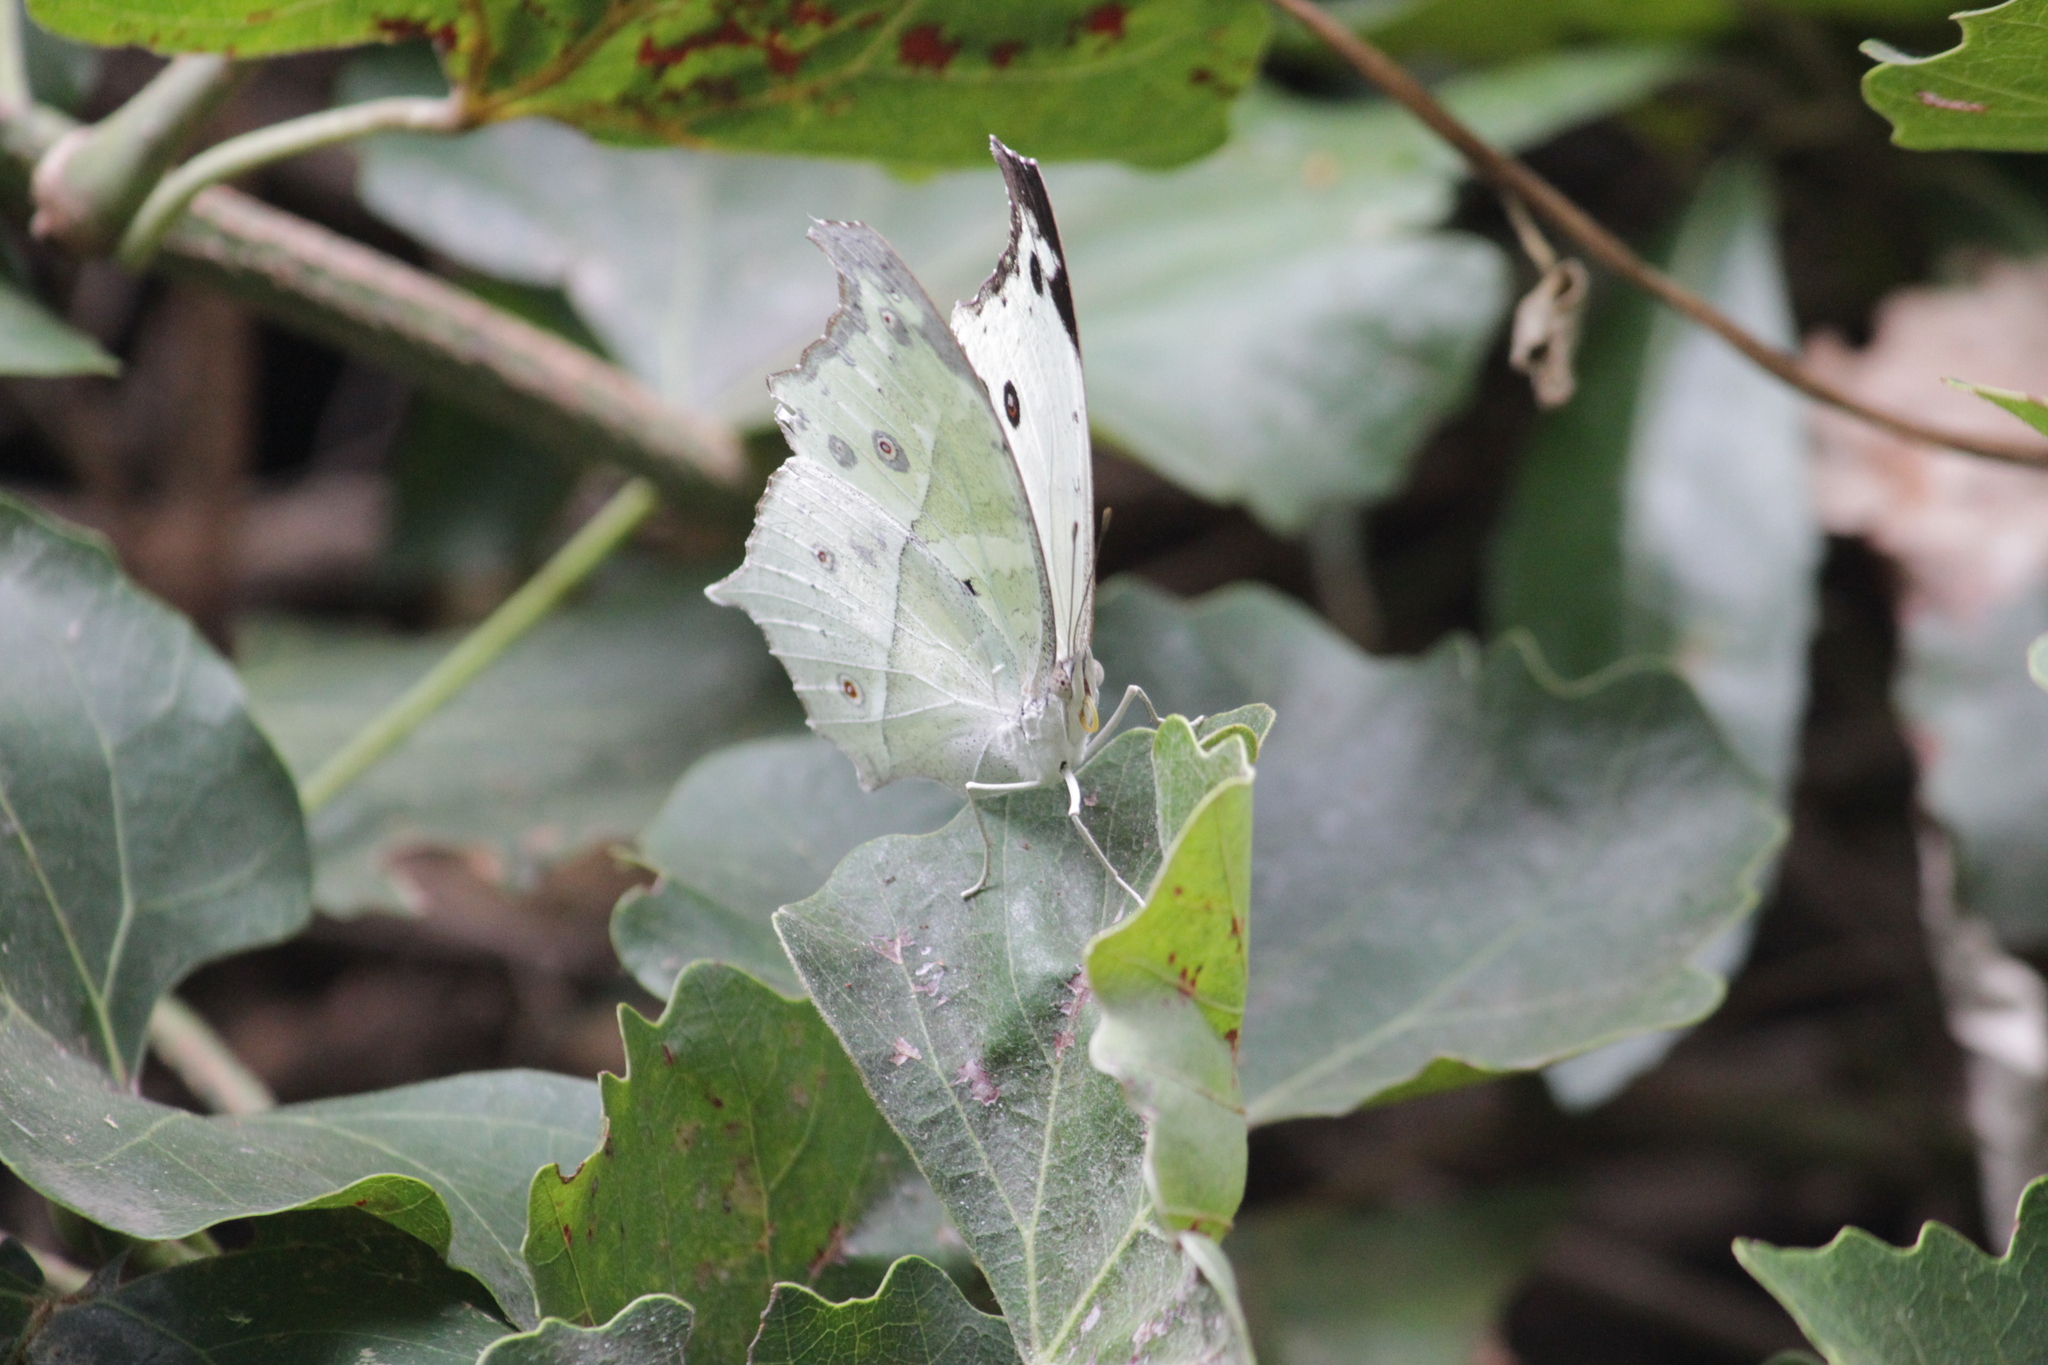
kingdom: Animalia
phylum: Arthropoda
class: Insecta
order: Lepidoptera
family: Nymphalidae
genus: Salamis
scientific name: Salamis Protogoniomorpha parhassus
